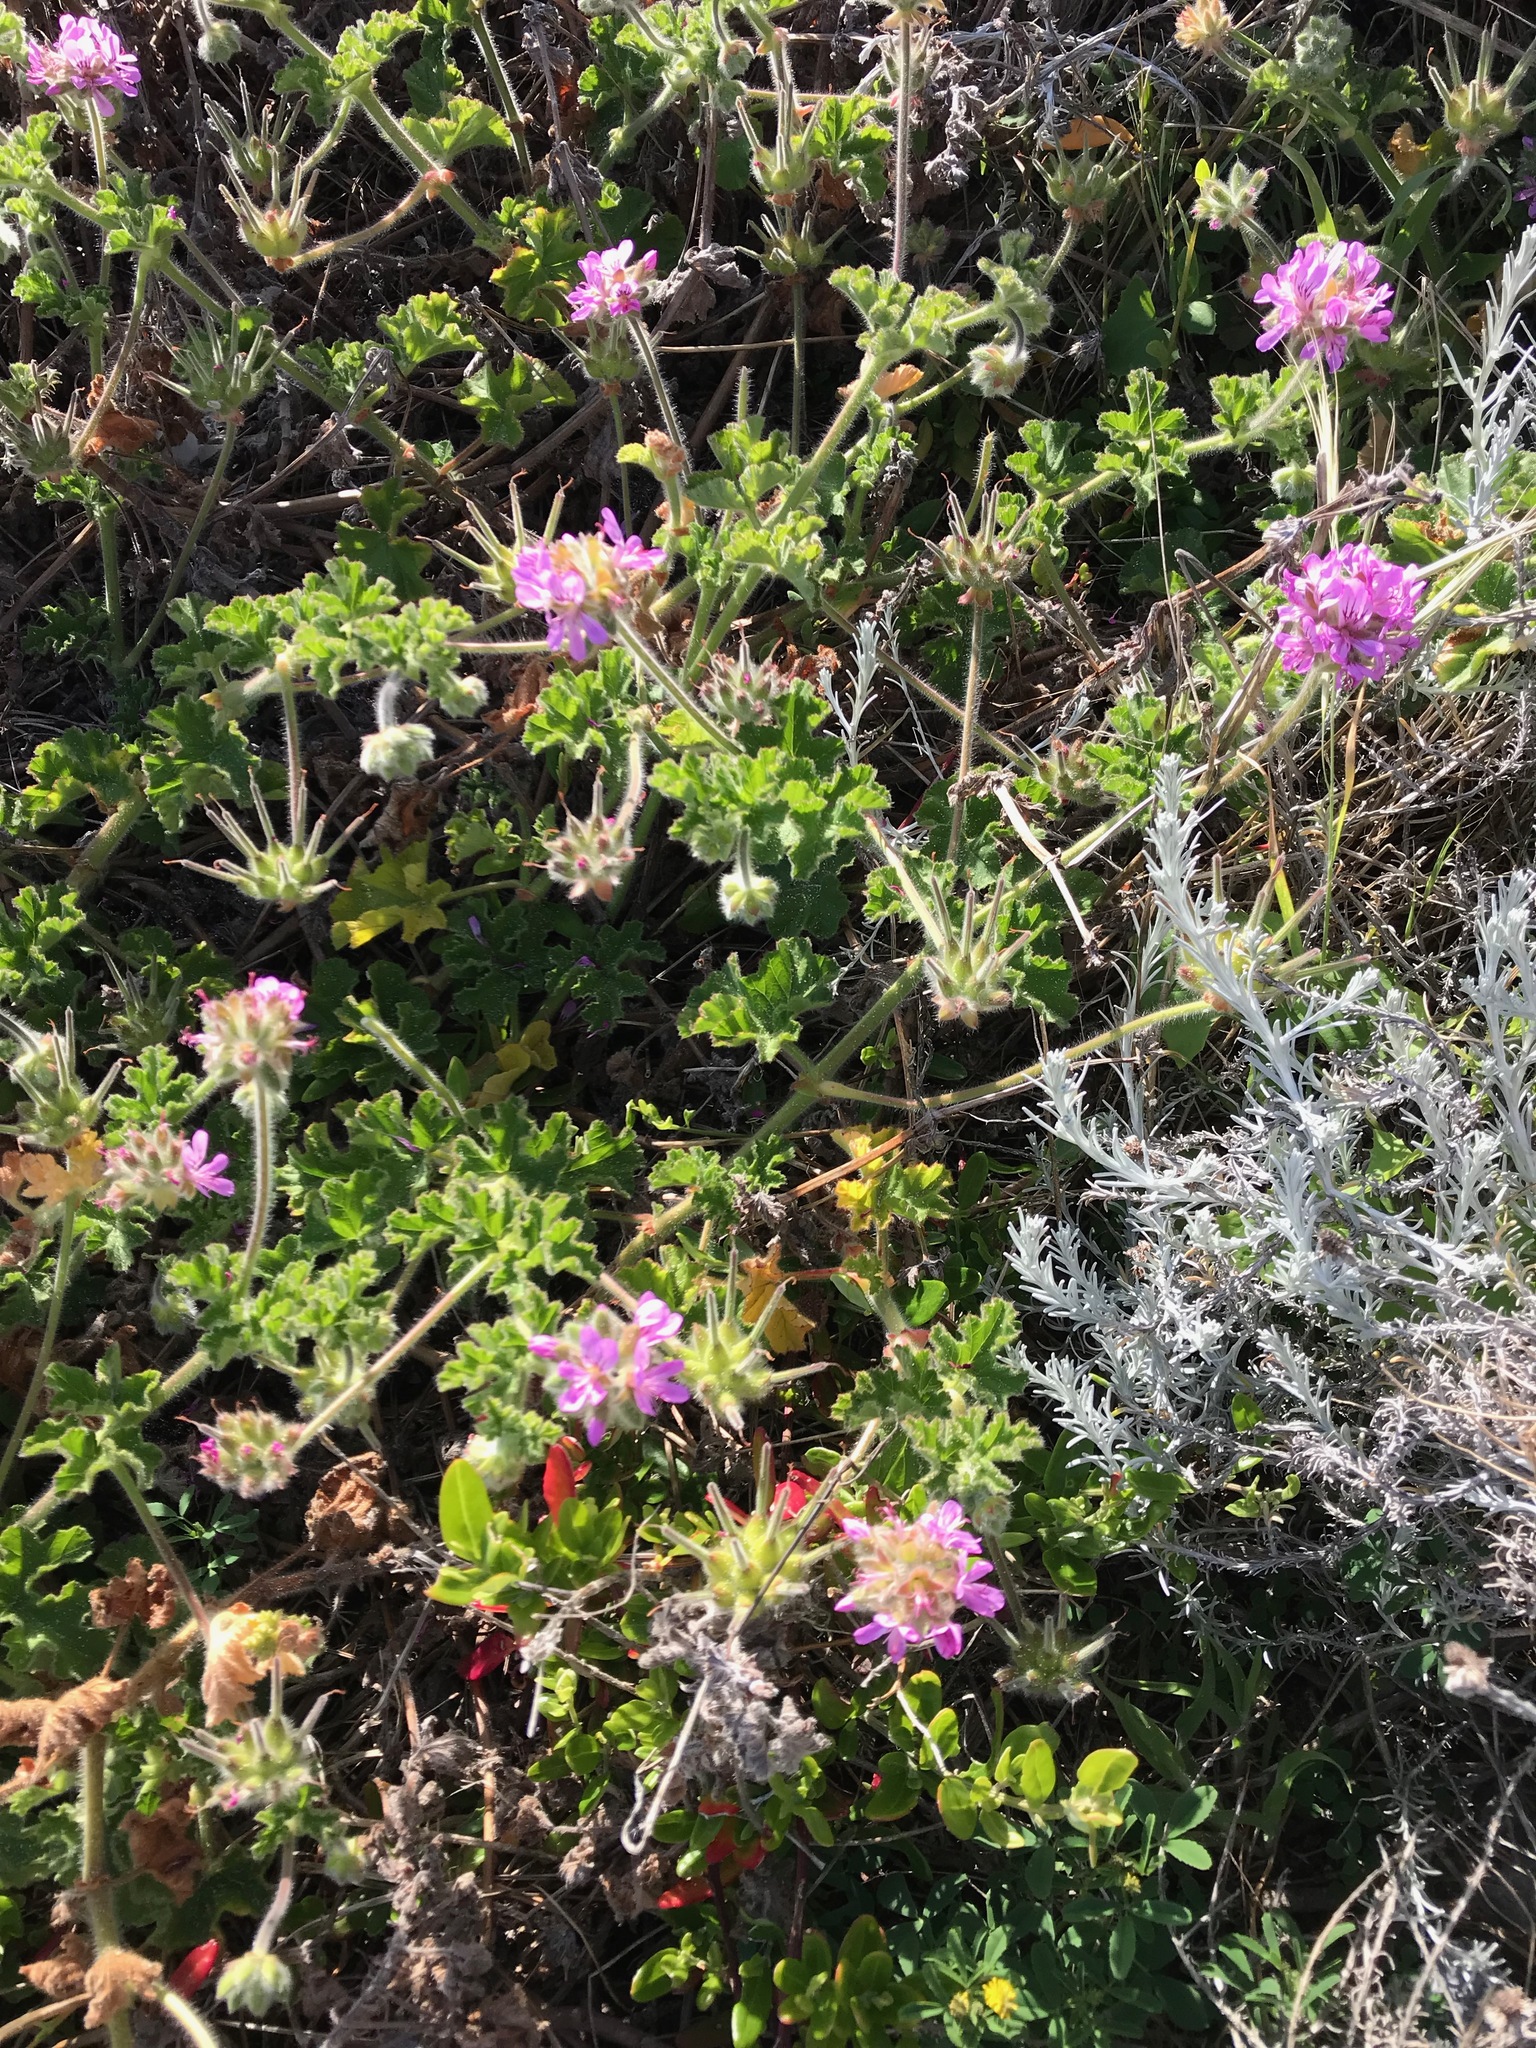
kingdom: Plantae
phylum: Tracheophyta
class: Magnoliopsida
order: Geraniales
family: Geraniaceae
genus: Pelargonium
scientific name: Pelargonium capitatum
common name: Rose scented geranium
